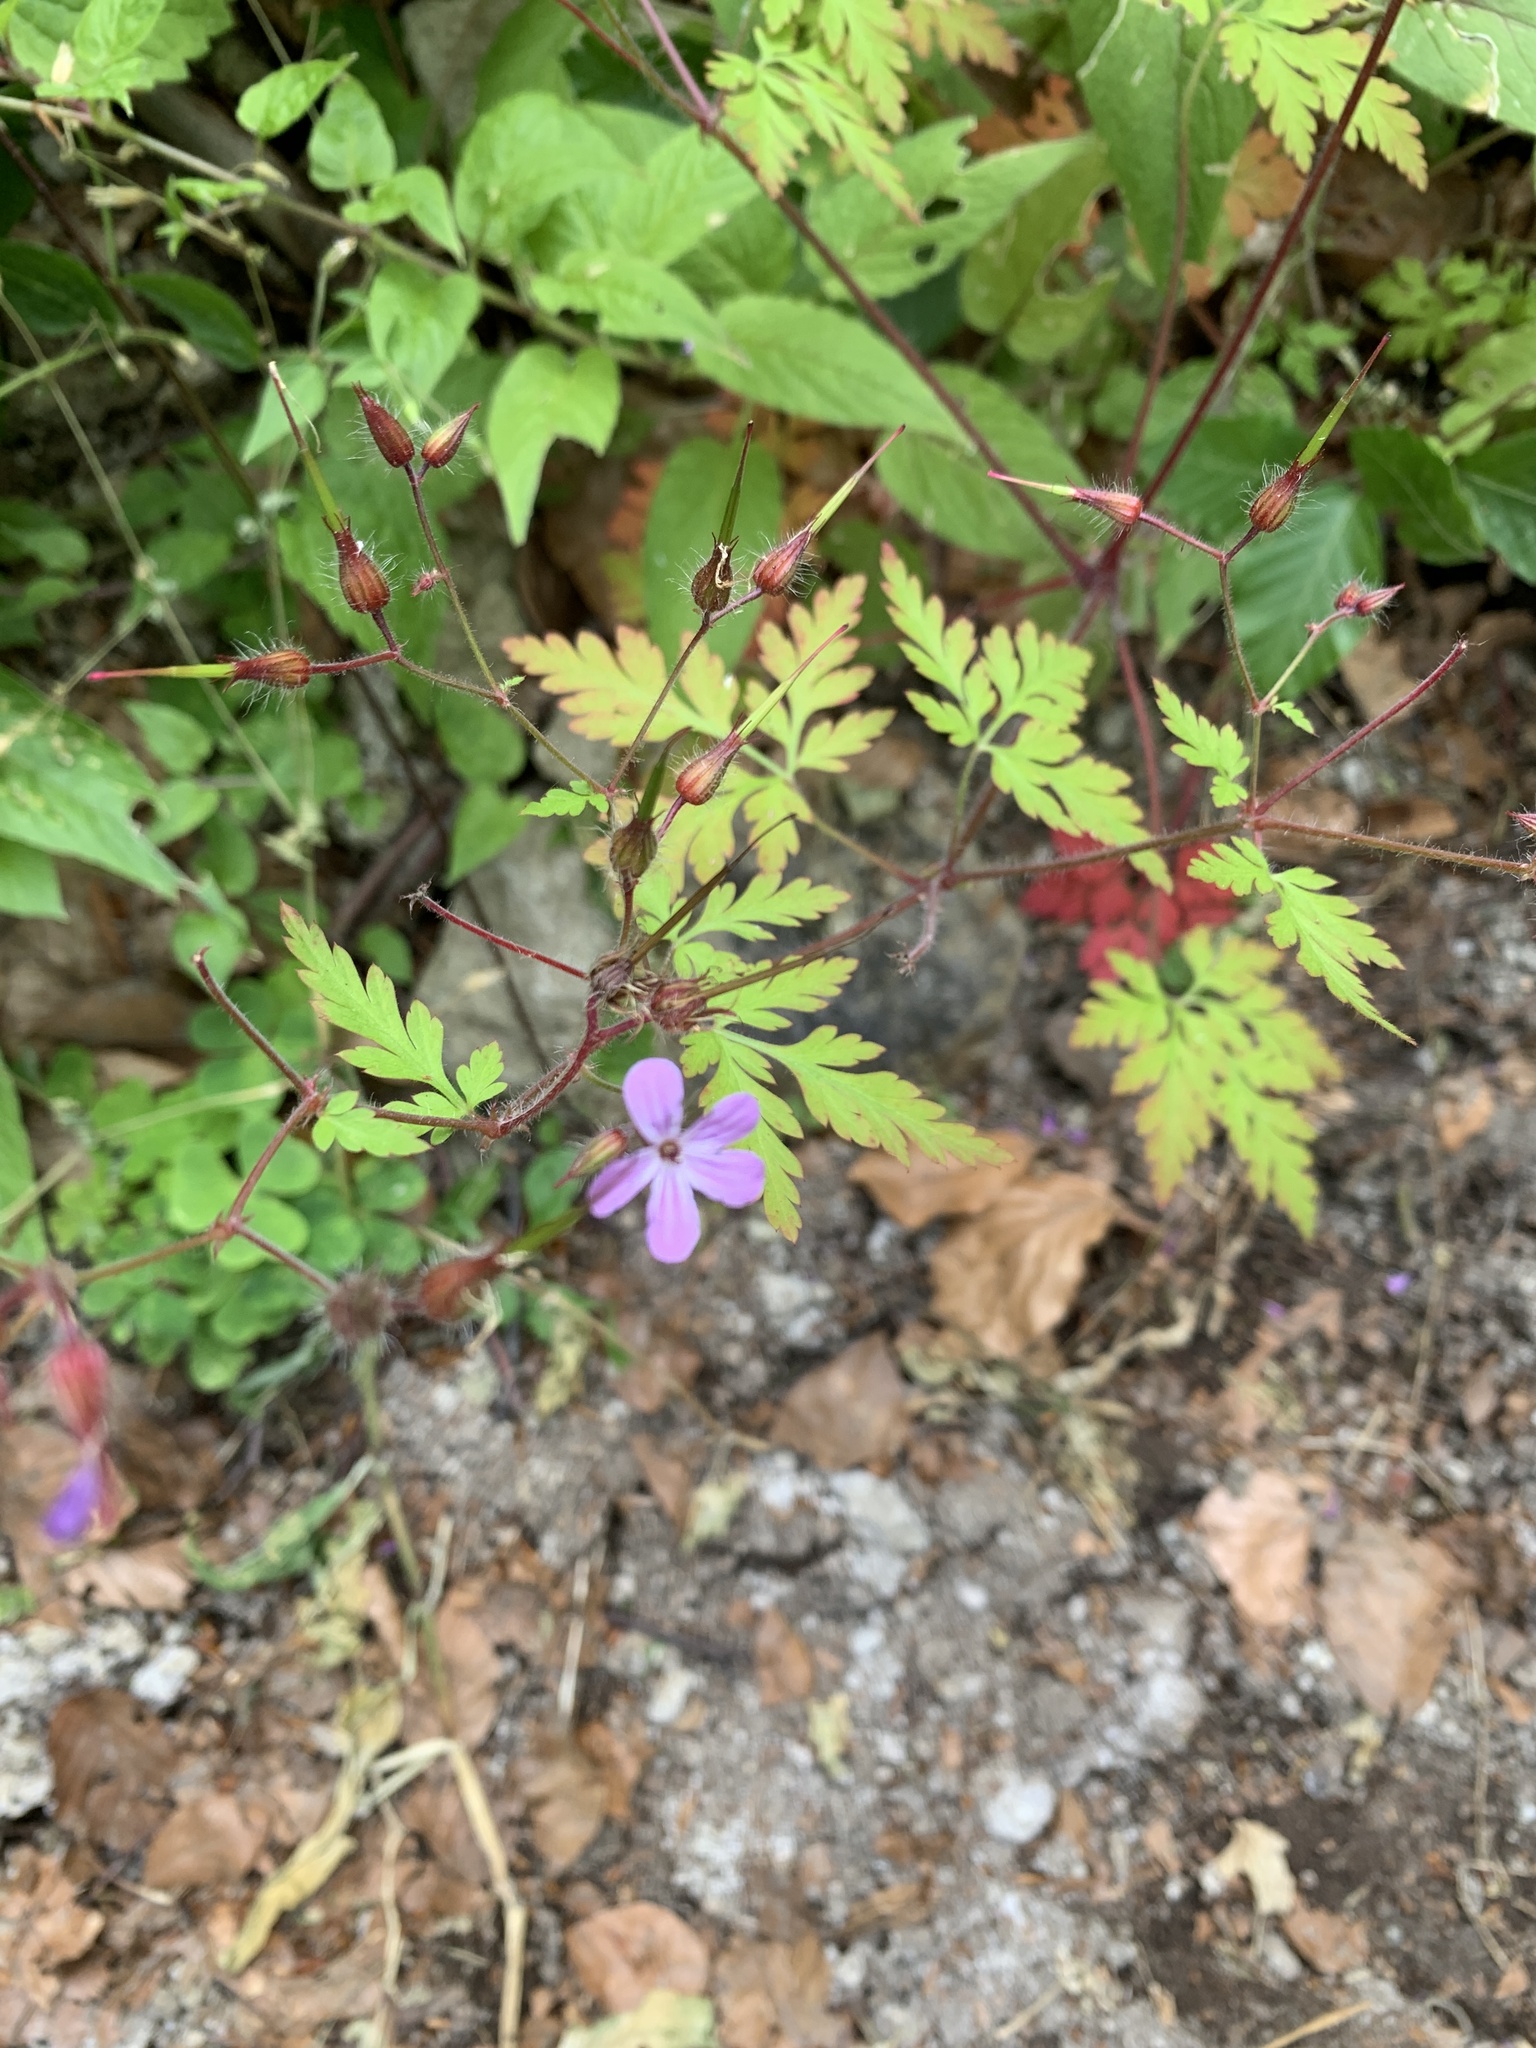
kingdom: Plantae
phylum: Tracheophyta
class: Magnoliopsida
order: Geraniales
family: Geraniaceae
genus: Geranium
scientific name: Geranium robertianum
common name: Herb-robert
